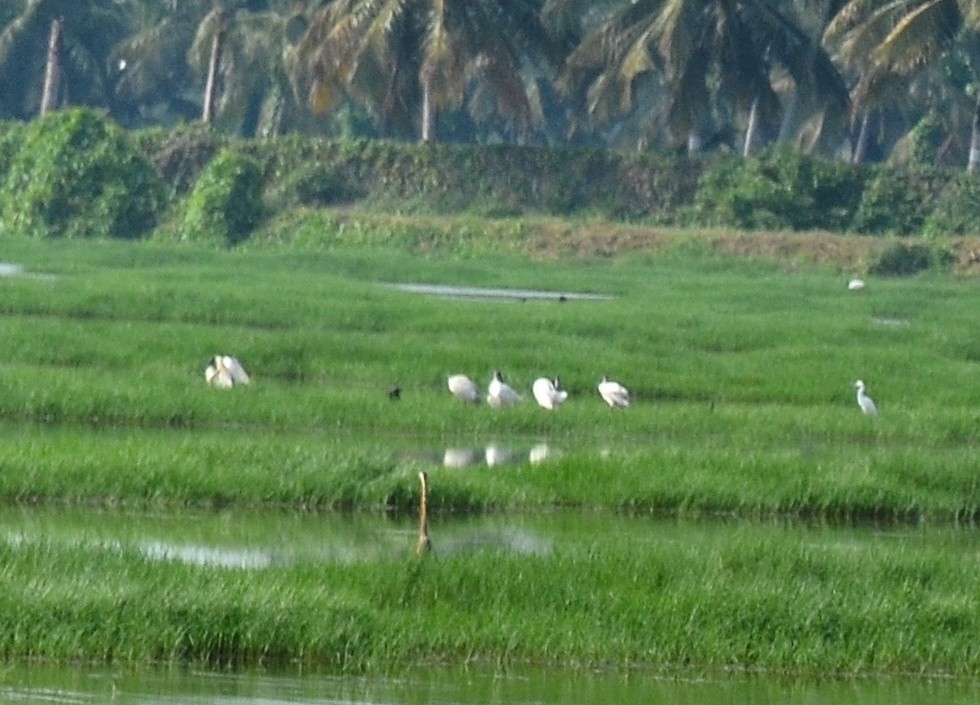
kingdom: Animalia
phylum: Chordata
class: Aves
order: Pelecaniformes
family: Threskiornithidae
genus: Threskiornis
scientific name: Threskiornis melanocephalus
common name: Black-headed ibis
